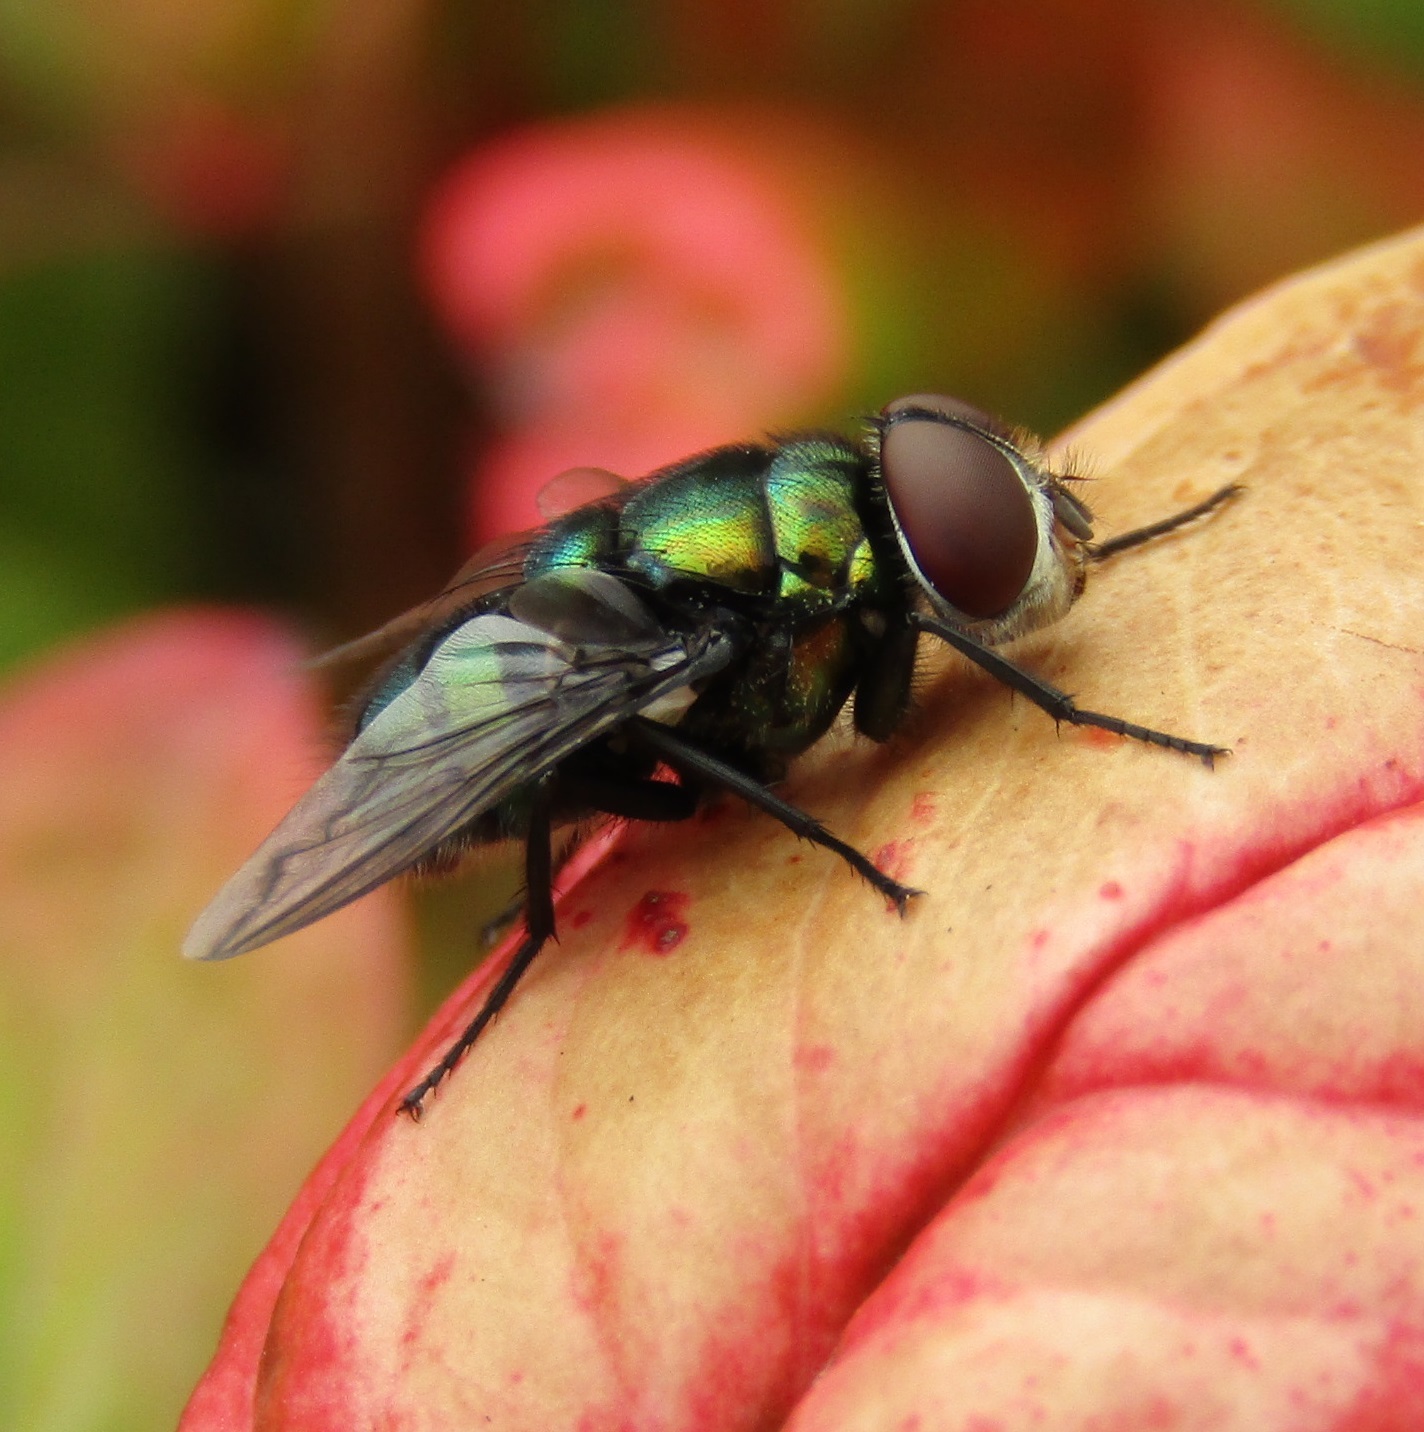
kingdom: Animalia
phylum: Arthropoda
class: Insecta
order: Diptera
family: Calliphoridae
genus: Chrysomya
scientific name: Chrysomya rufifacies
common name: Blow fly
